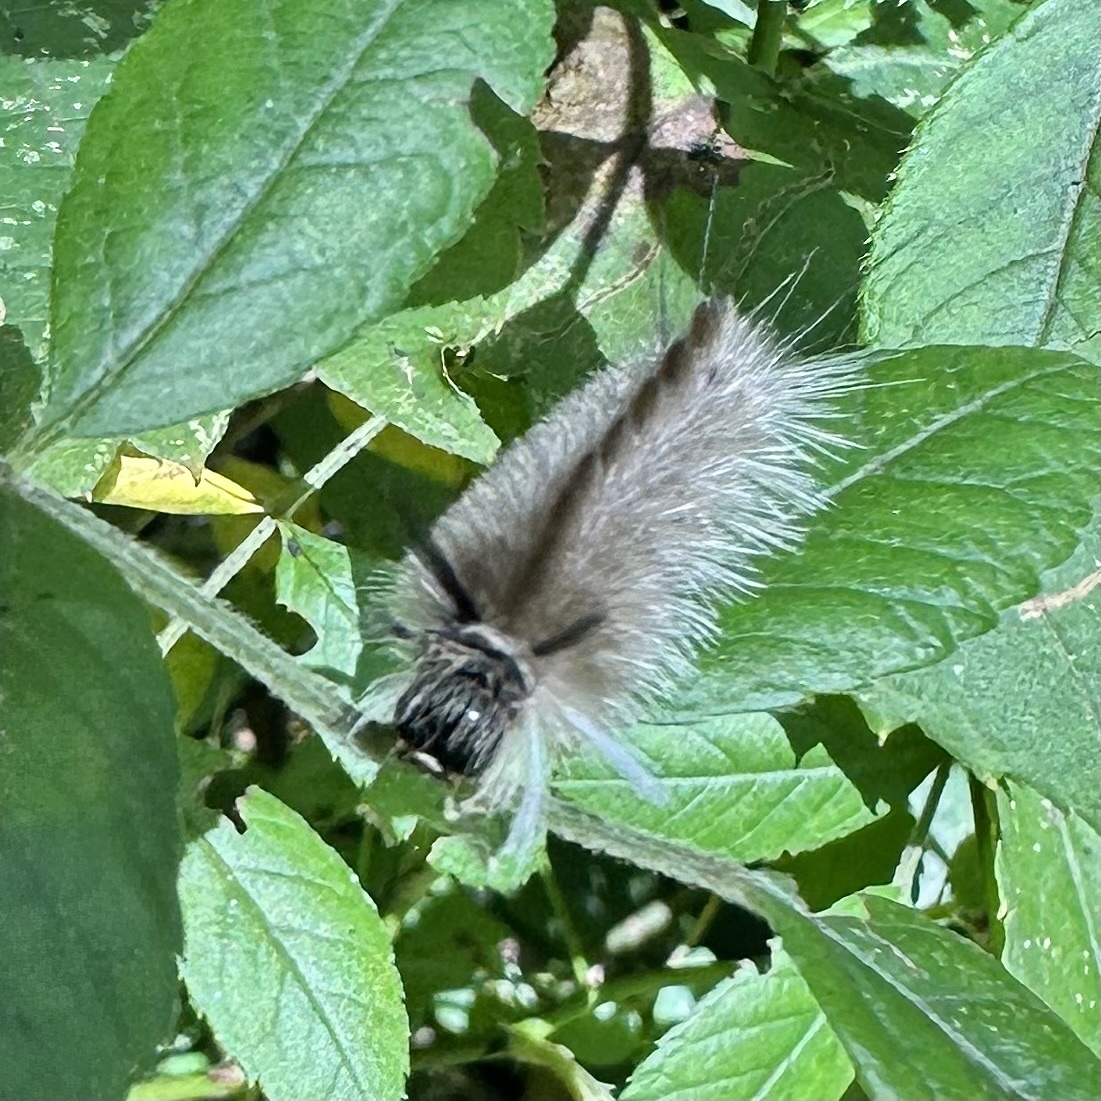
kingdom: Animalia
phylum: Arthropoda
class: Insecta
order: Lepidoptera
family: Erebidae
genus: Halysidota
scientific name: Halysidota tessellaris
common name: Banded tussock moth
